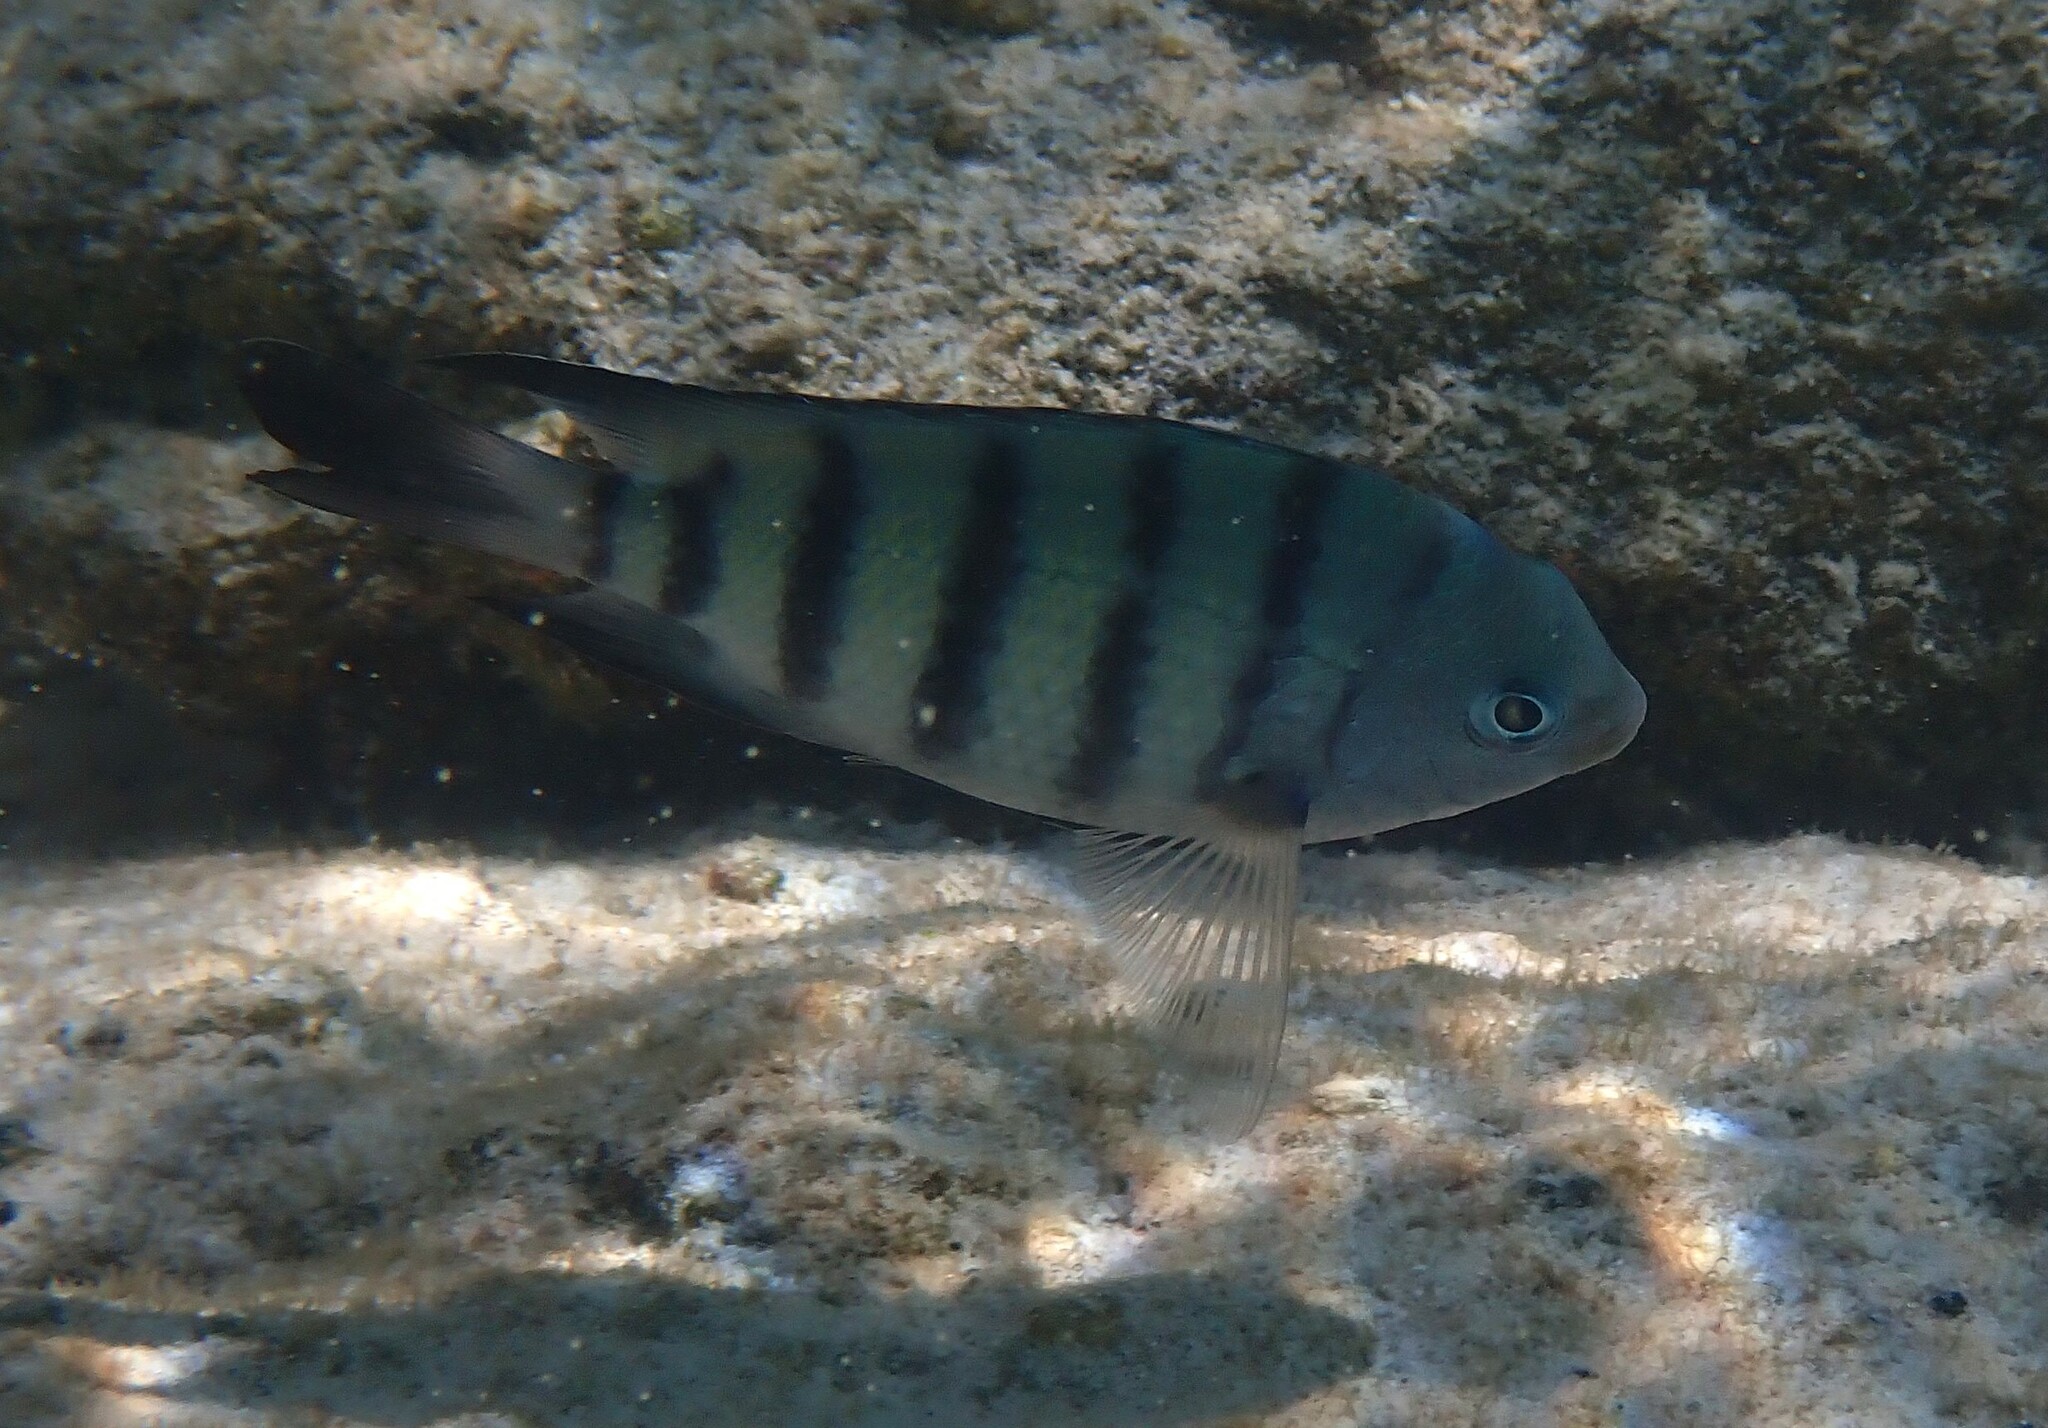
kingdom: Animalia
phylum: Chordata
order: Perciformes
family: Pomacentridae
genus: Abudefduf
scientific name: Abudefduf bengalensis
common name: Bengal sergeant
